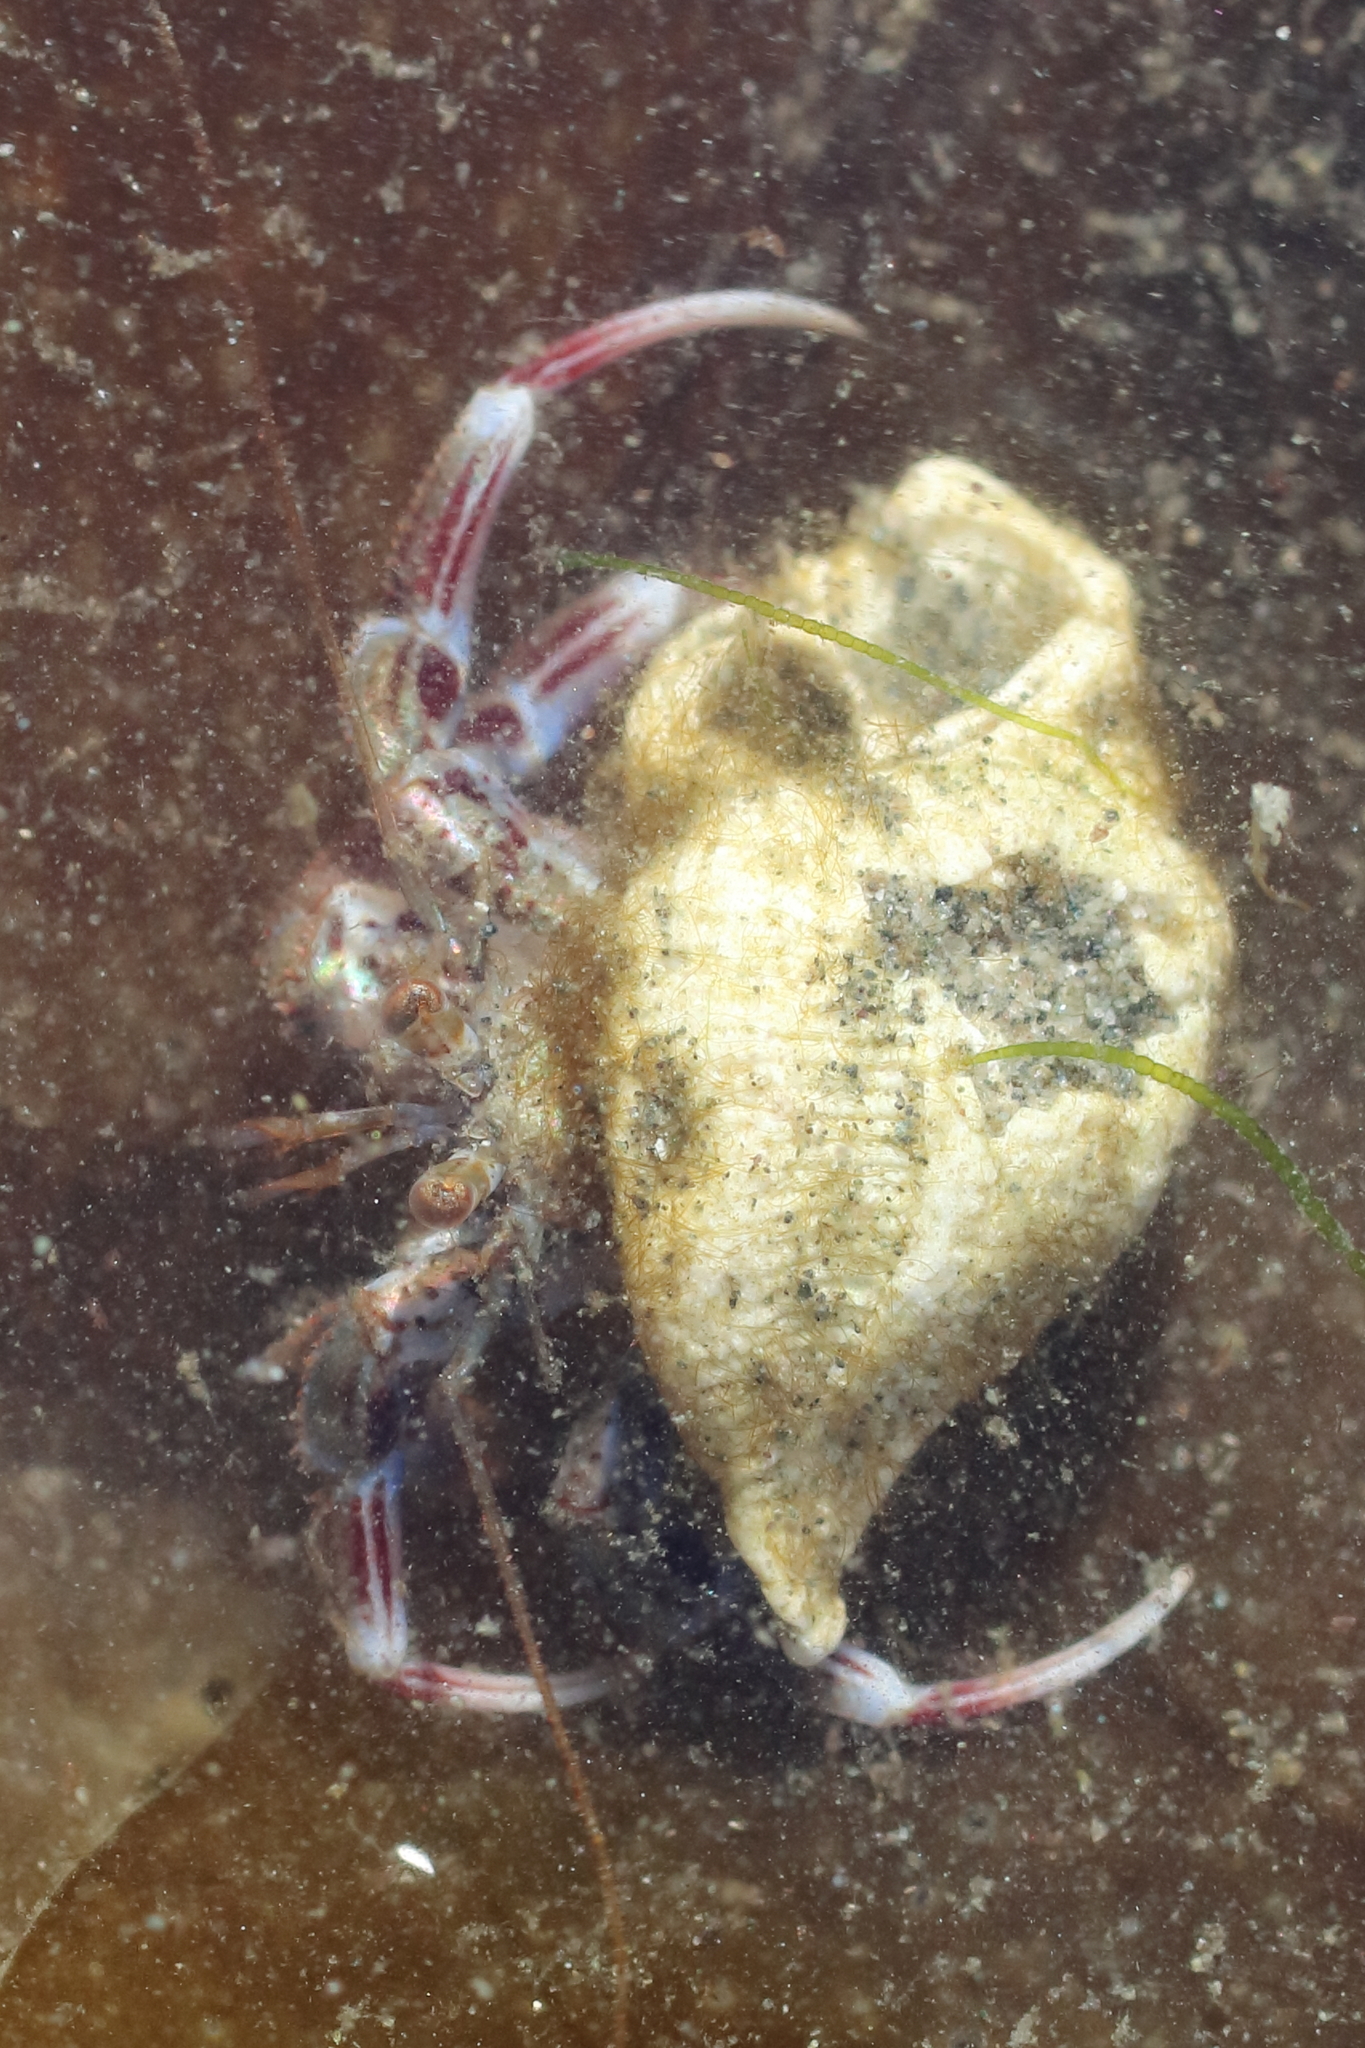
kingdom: Animalia
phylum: Arthropoda
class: Malacostraca
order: Decapoda
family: Paguridae
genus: Pagurus
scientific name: Pagurus ochotensis
